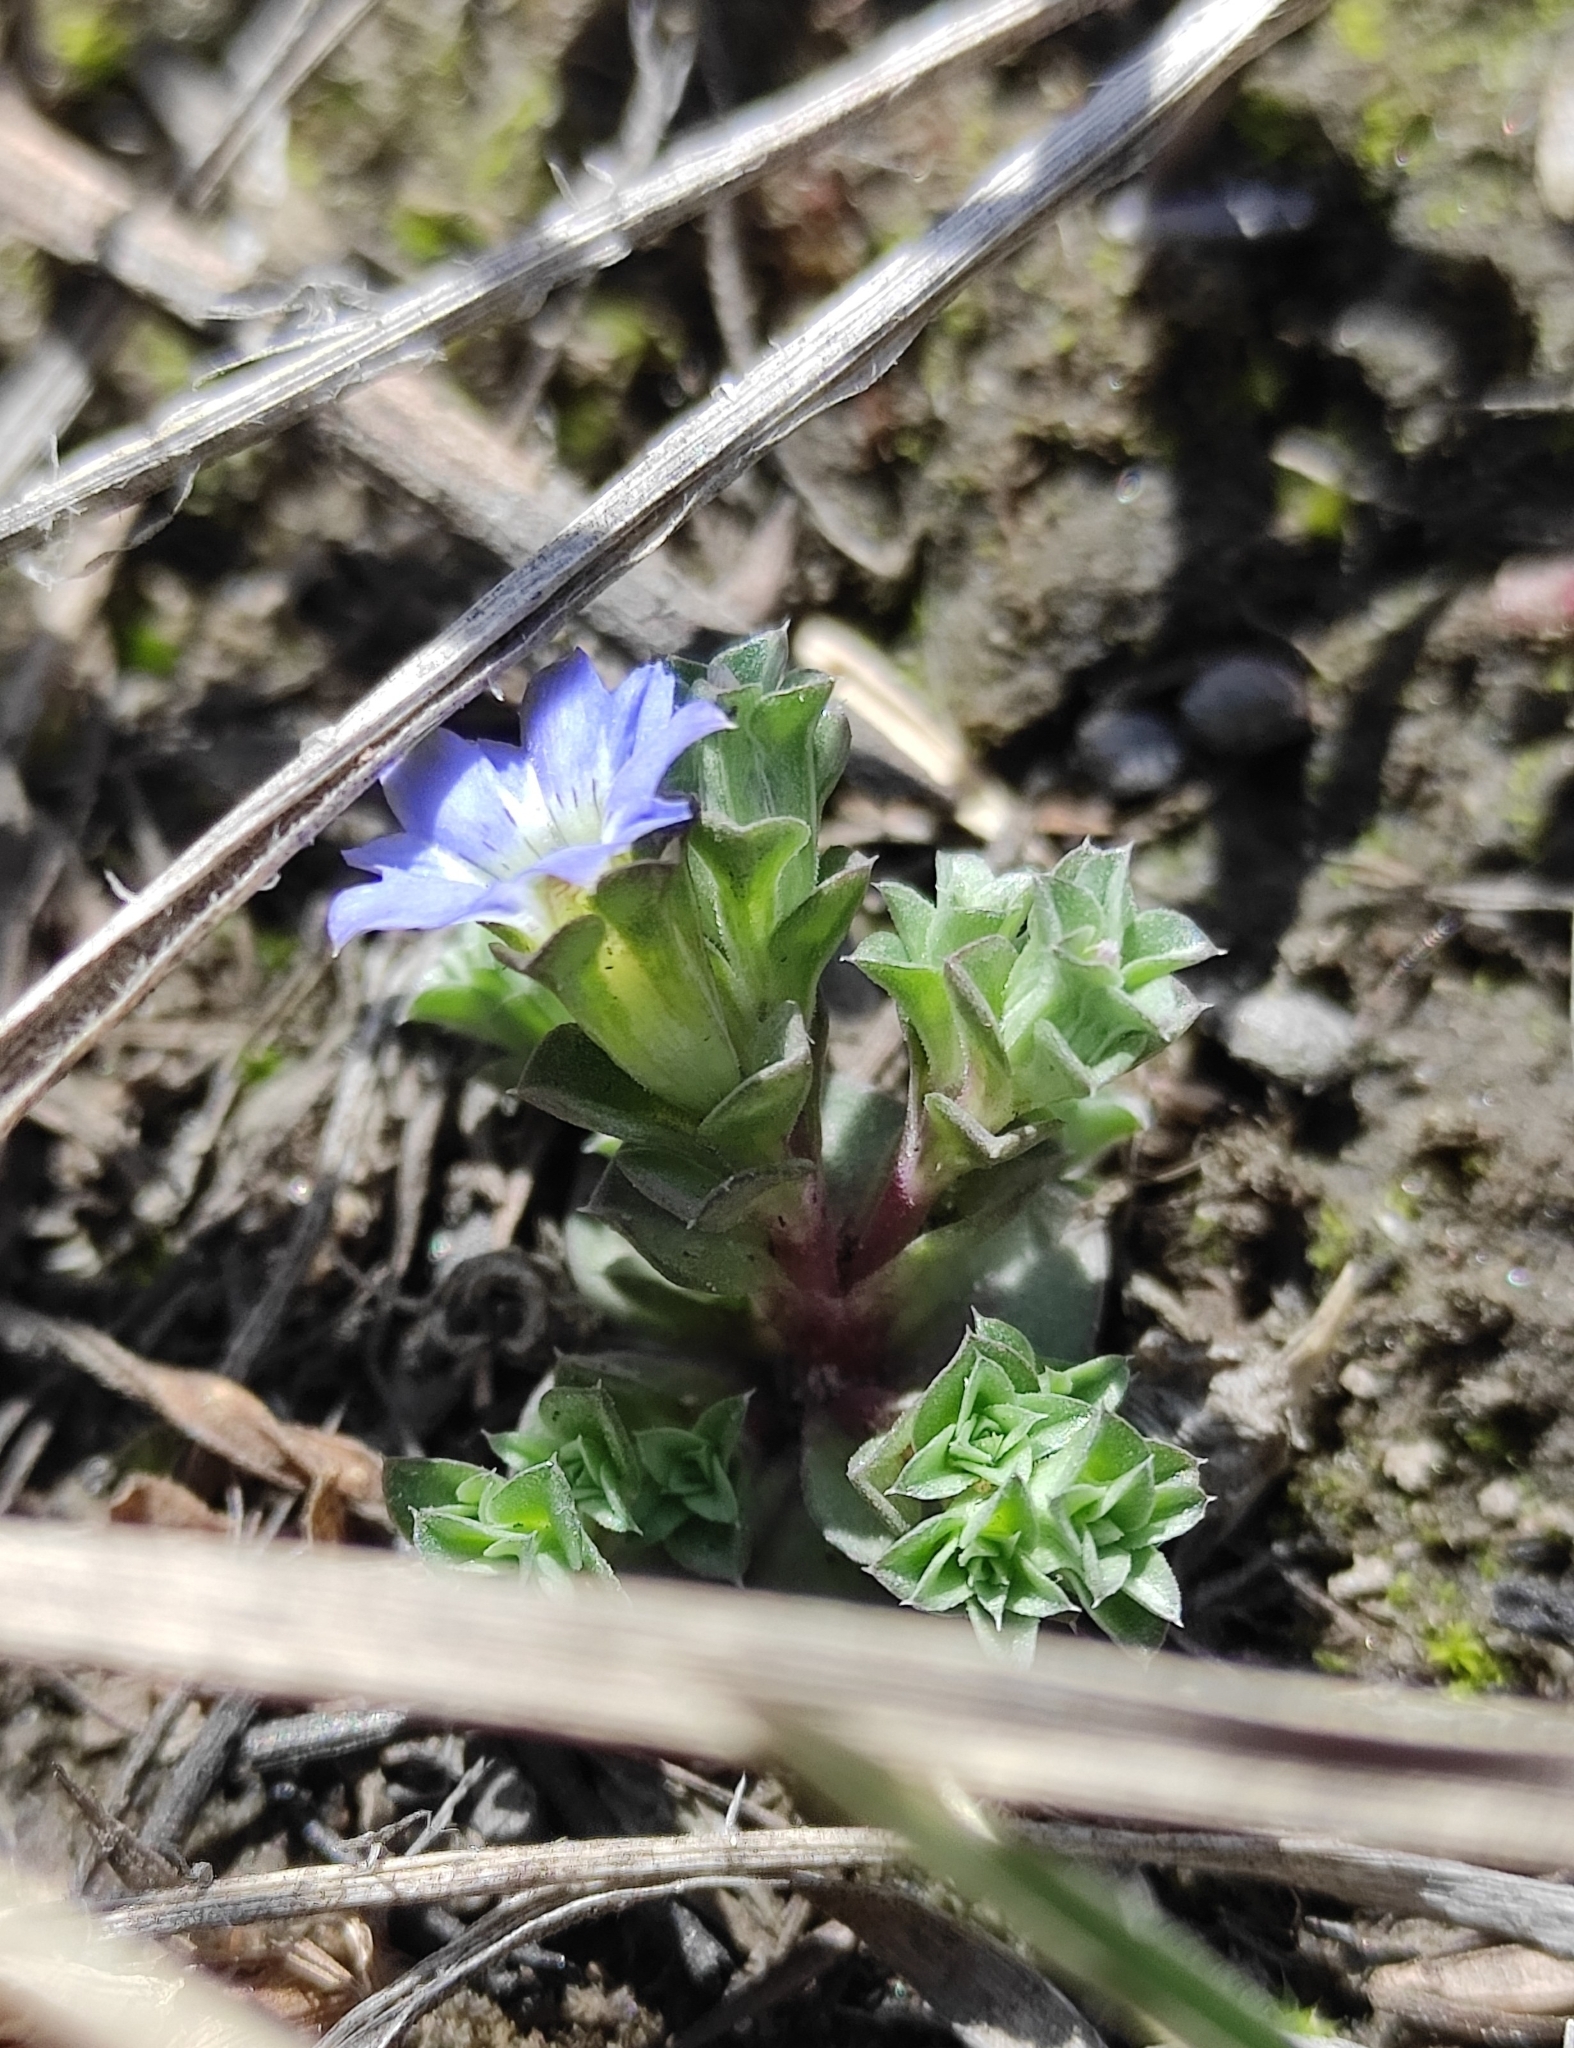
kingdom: Plantae
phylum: Tracheophyta
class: Magnoliopsida
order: Gentianales
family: Gentianaceae
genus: Gentiana
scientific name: Gentiana squarrosa
